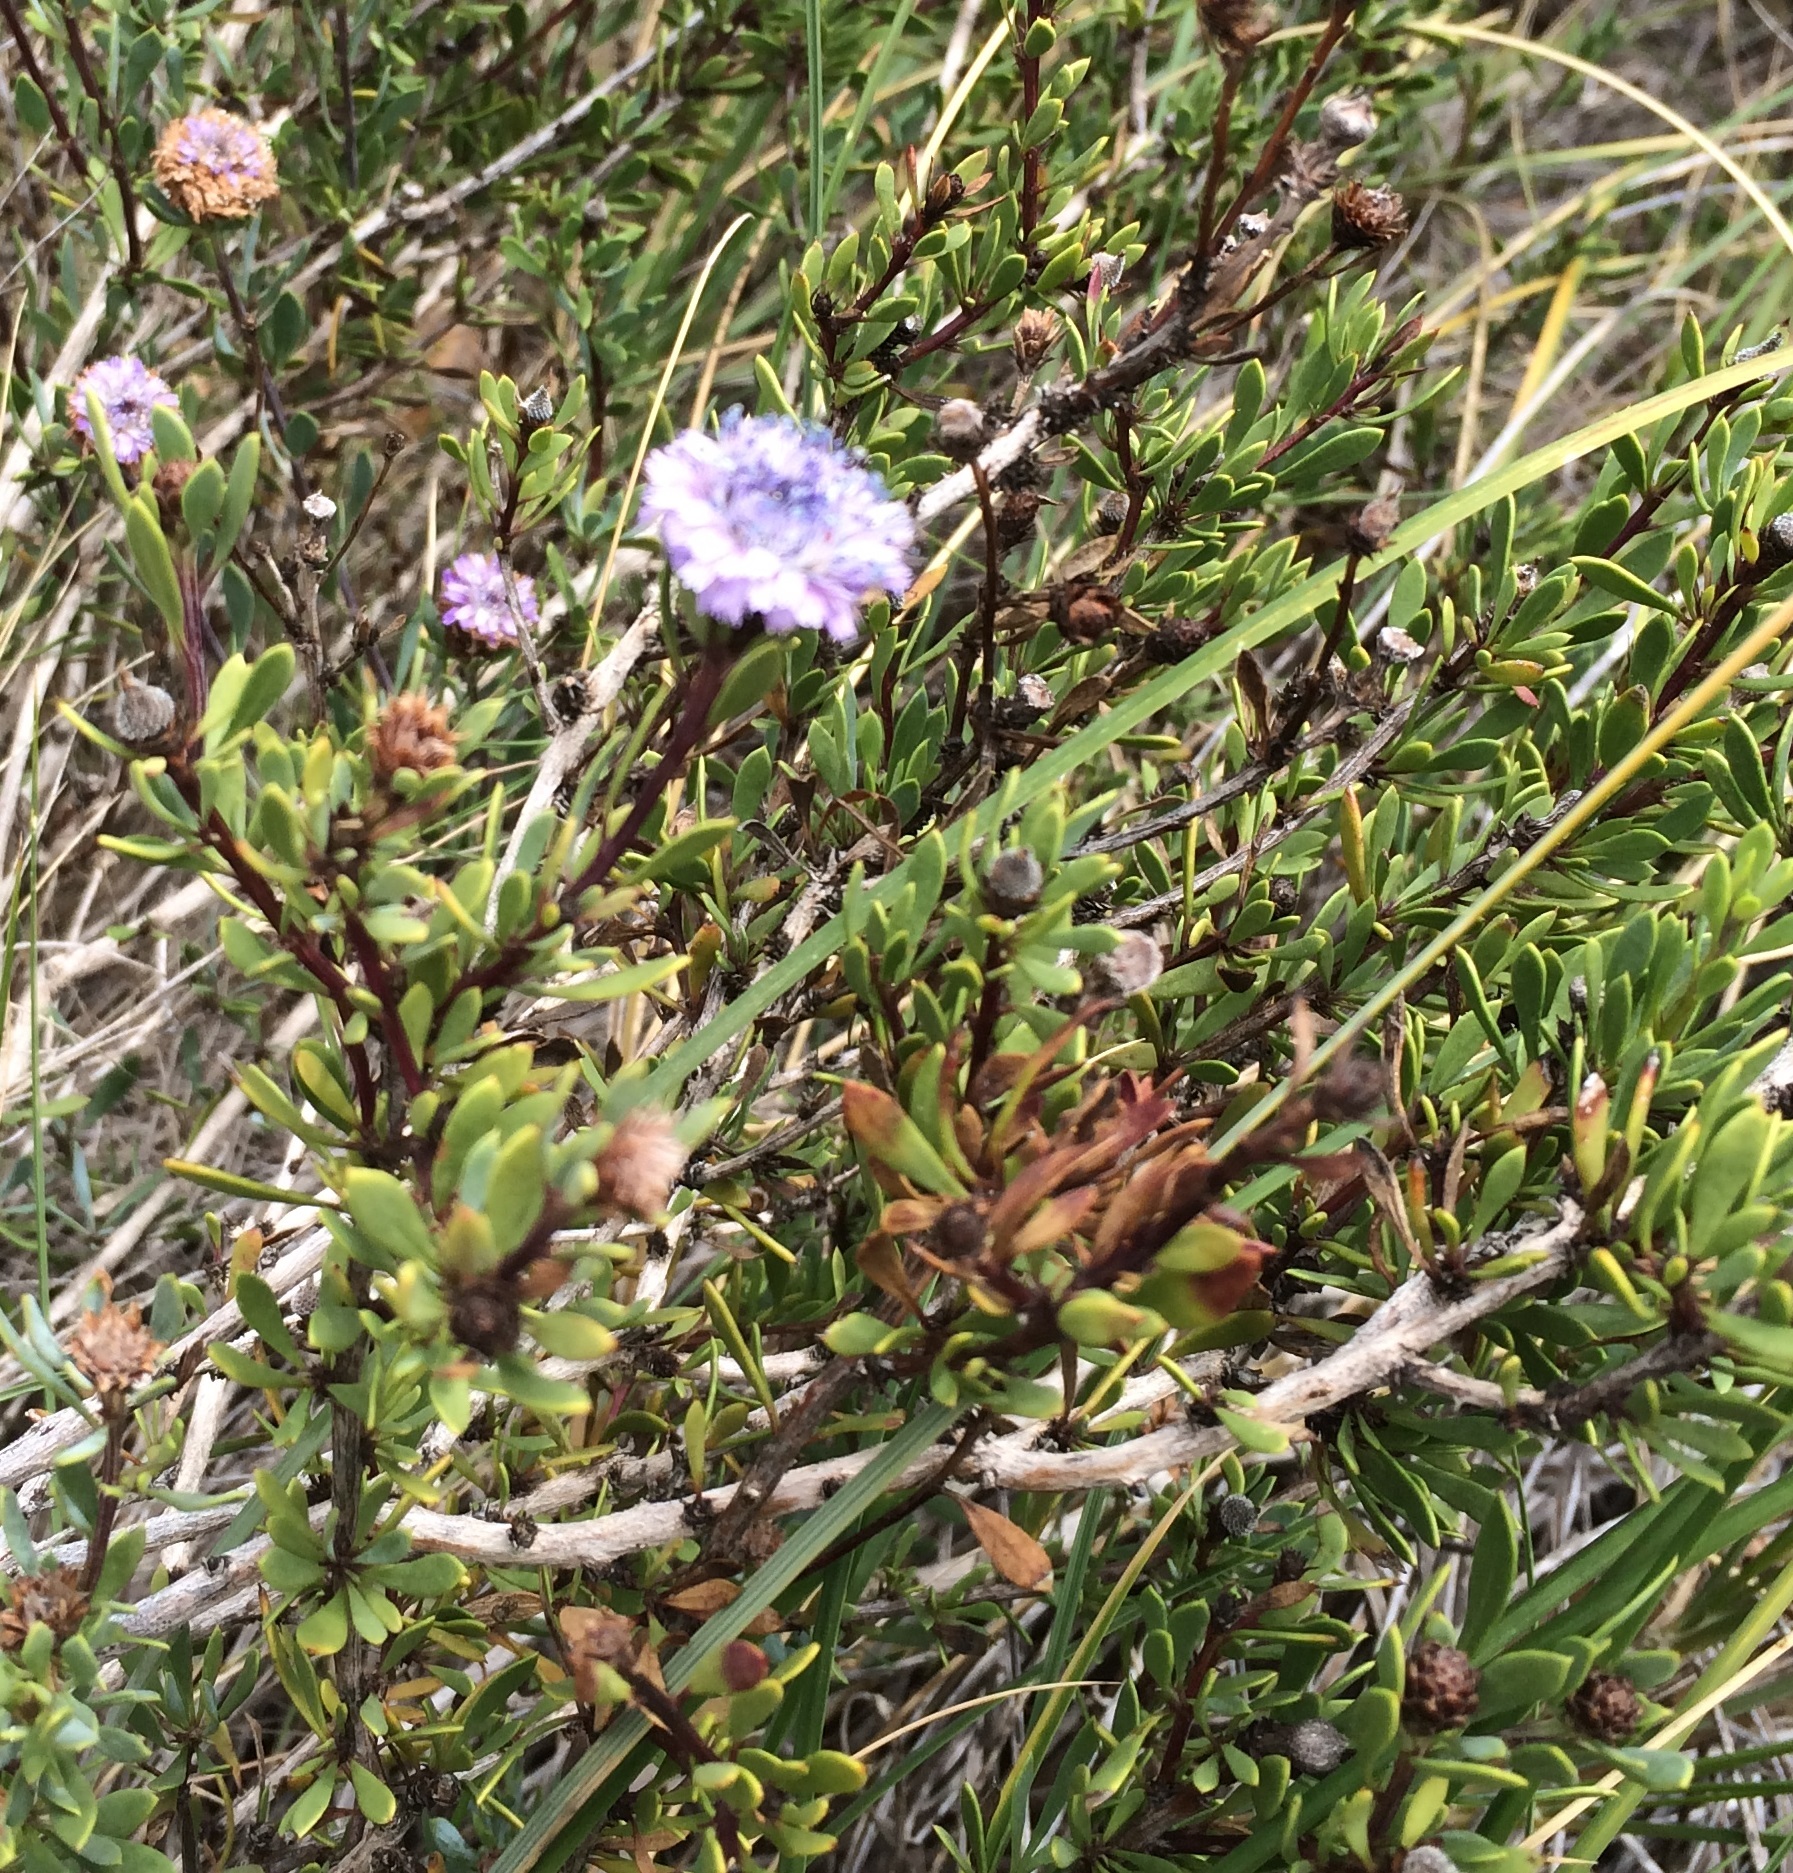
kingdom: Plantae
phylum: Tracheophyta
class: Magnoliopsida
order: Lamiales
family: Plantaginaceae
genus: Globularia
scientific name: Globularia alypum
